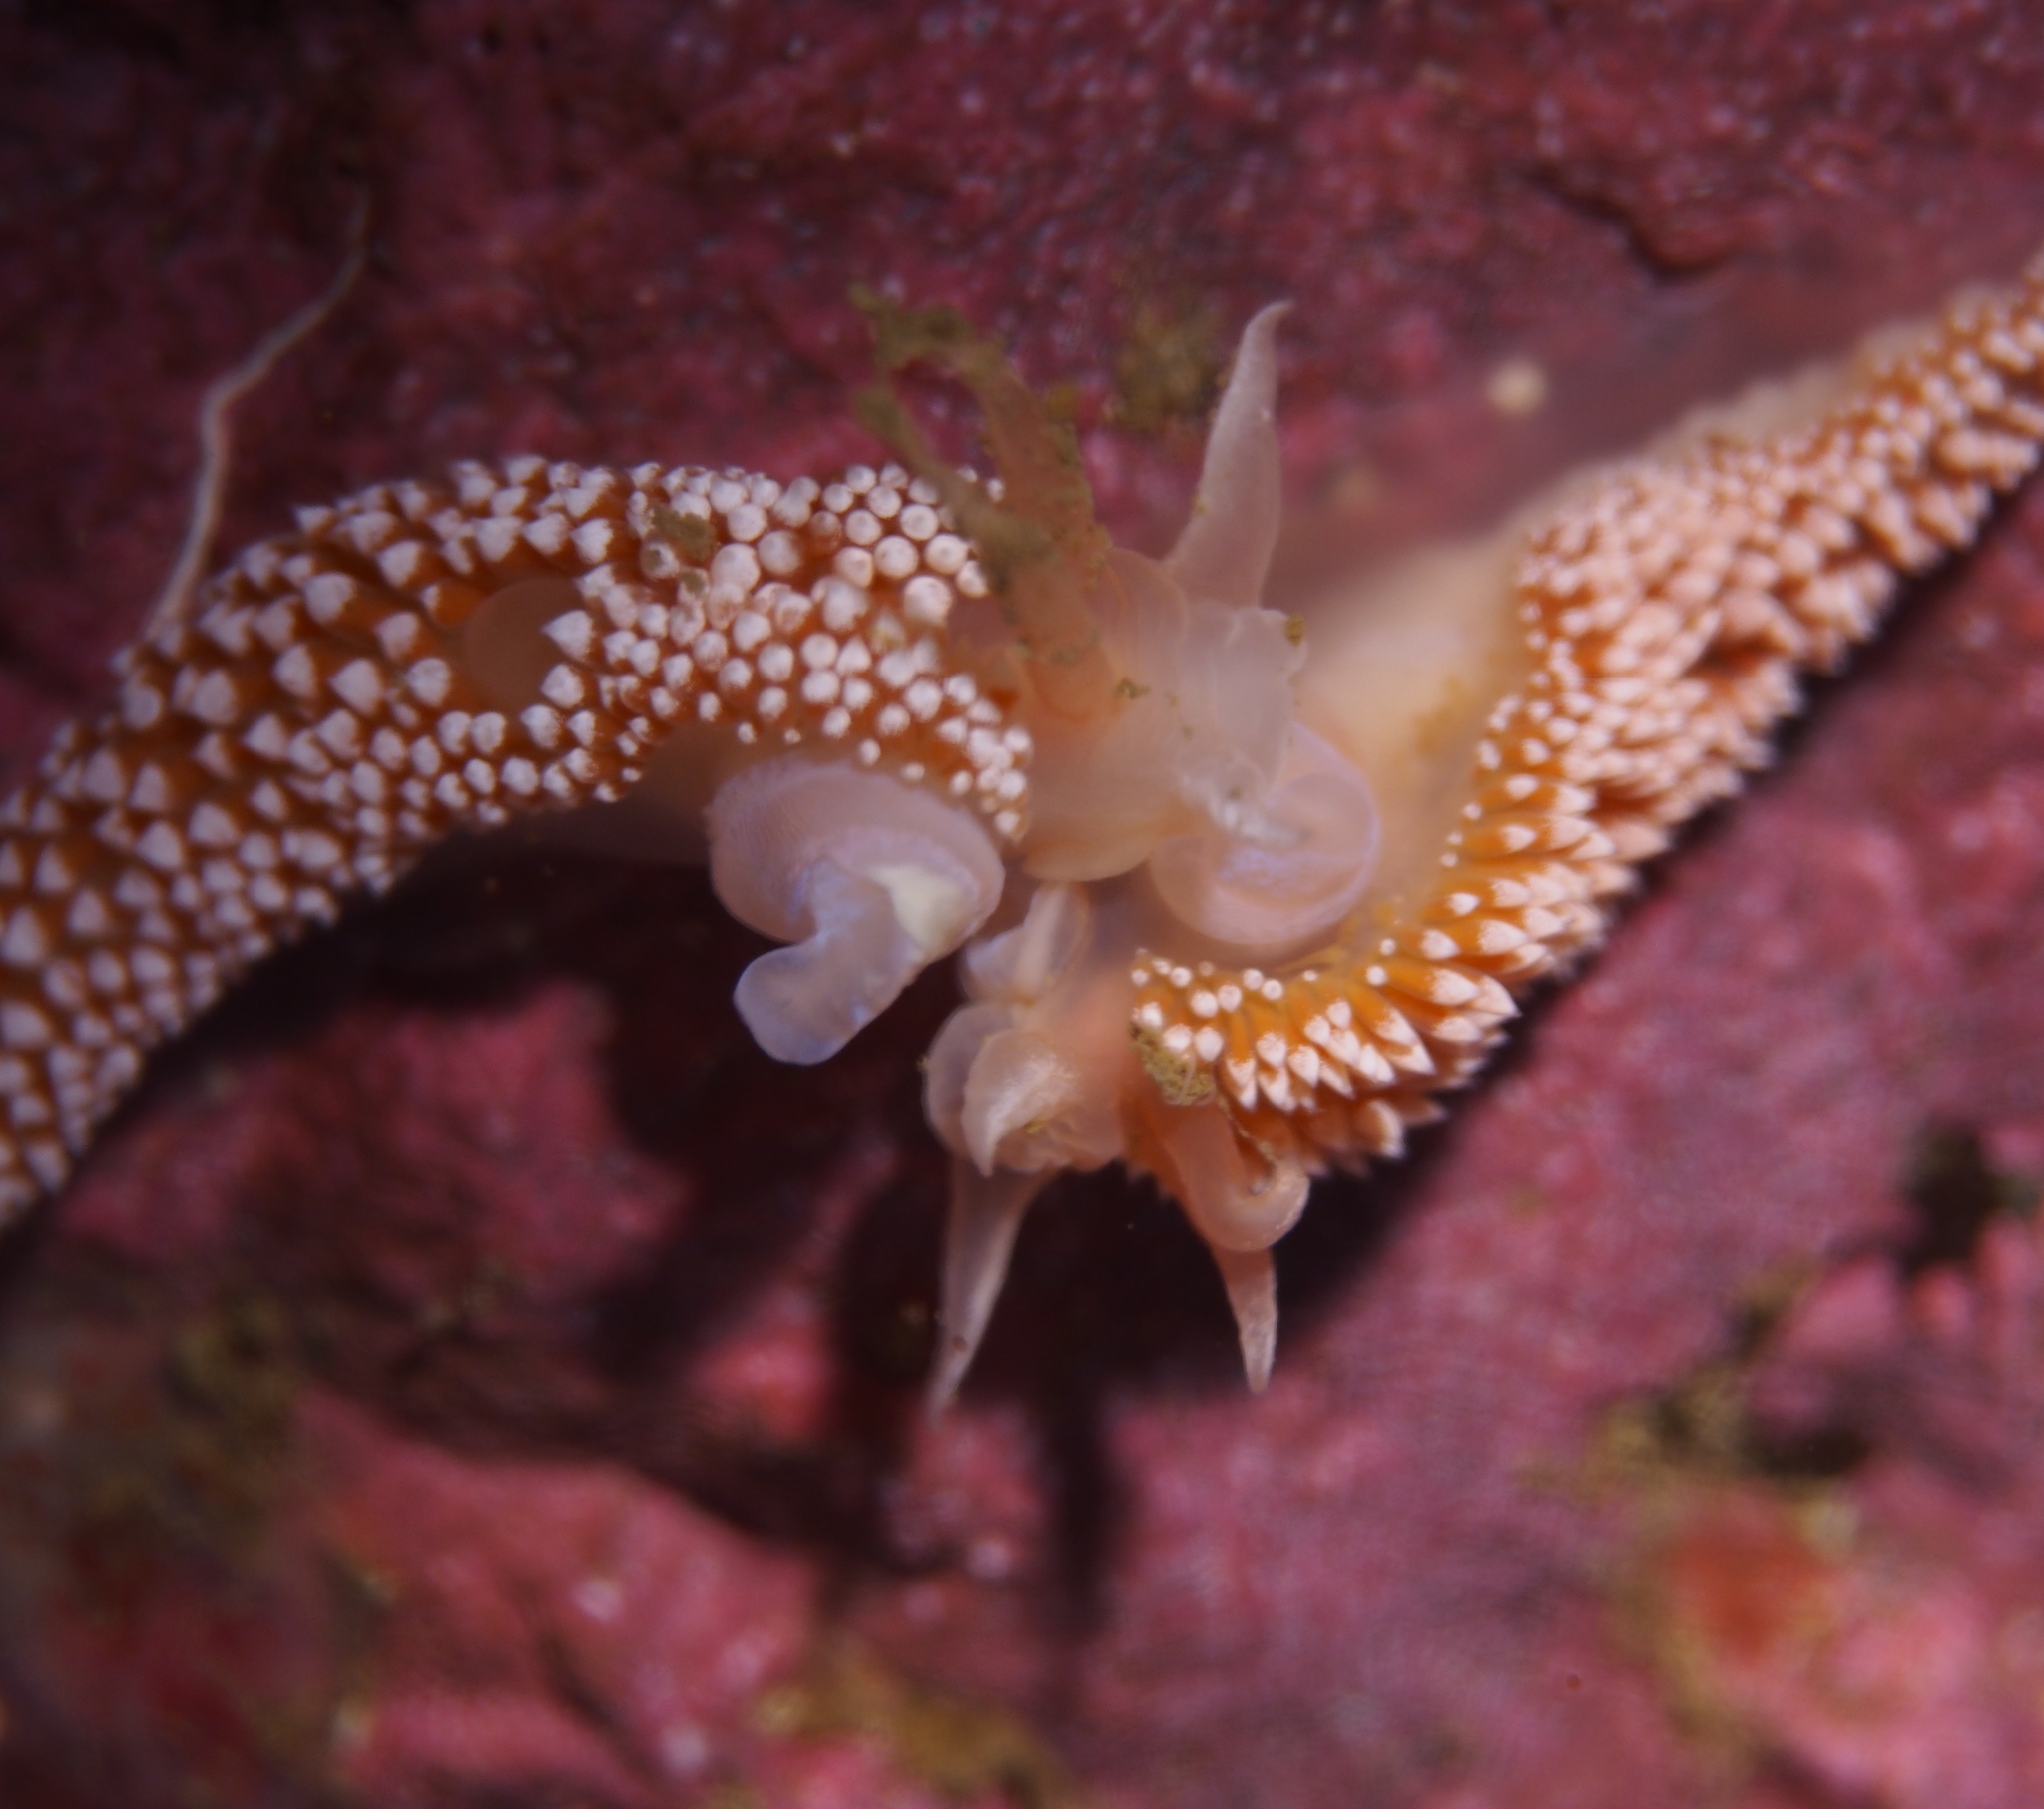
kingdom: Animalia
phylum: Mollusca
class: Gastropoda
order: Nudibranchia
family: Coryphellidae
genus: Coryphella
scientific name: Coryphella verrucosa
